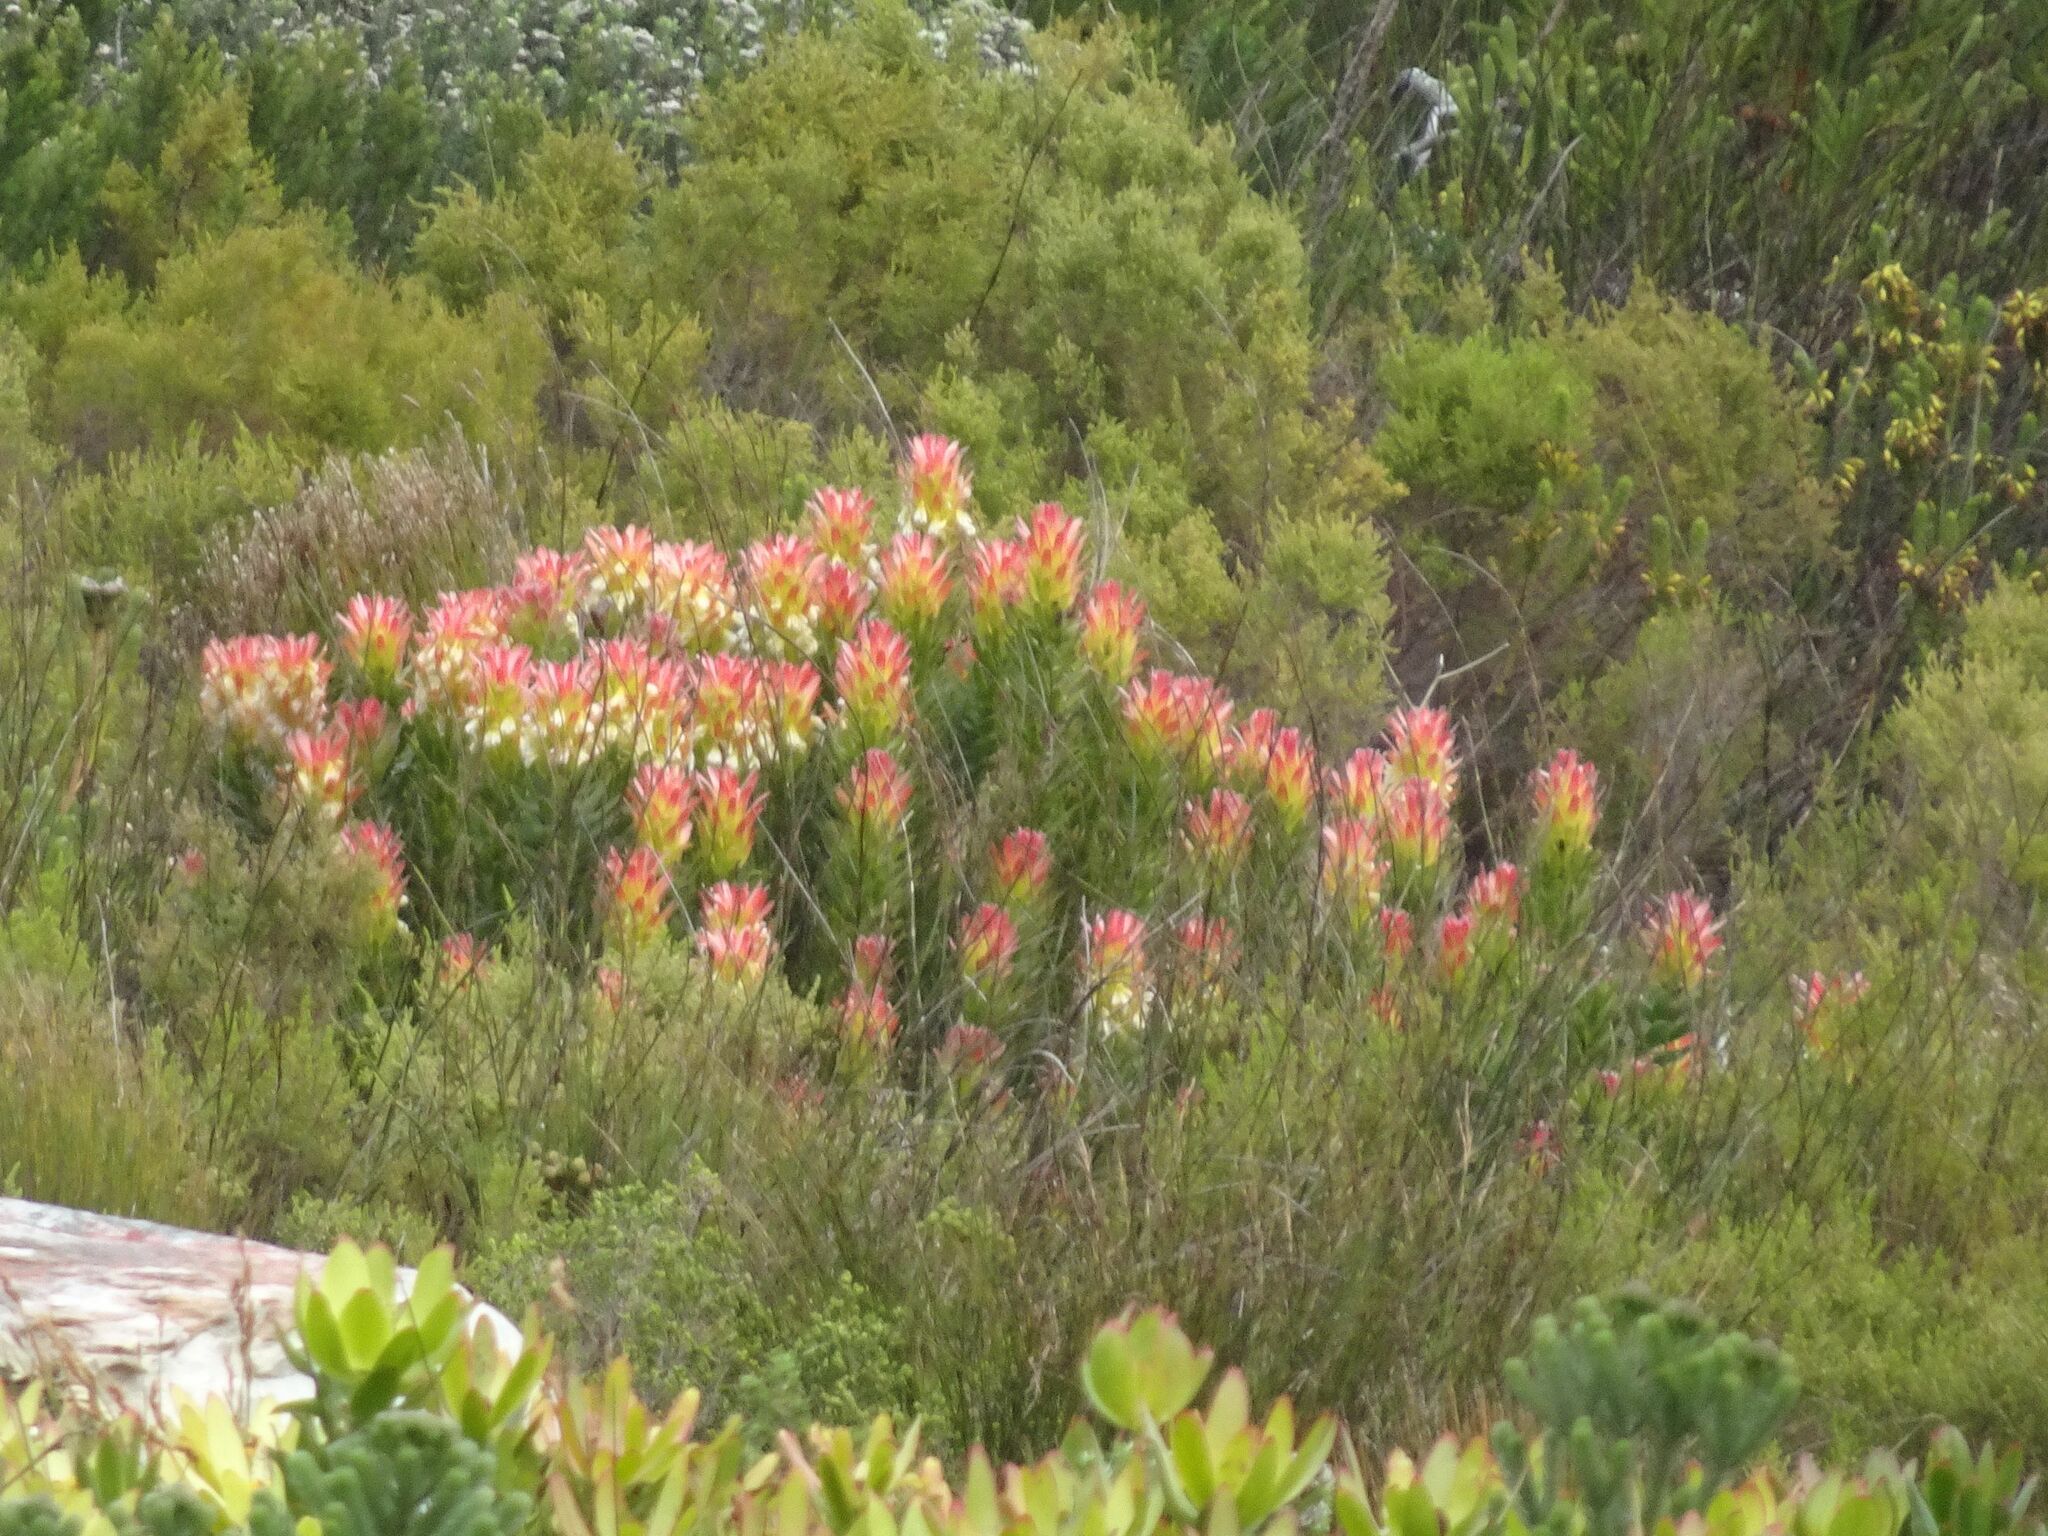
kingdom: Plantae
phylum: Tracheophyta
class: Magnoliopsida
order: Proteales
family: Proteaceae
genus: Mimetes
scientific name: Mimetes cucullatus
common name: Common pagoda
